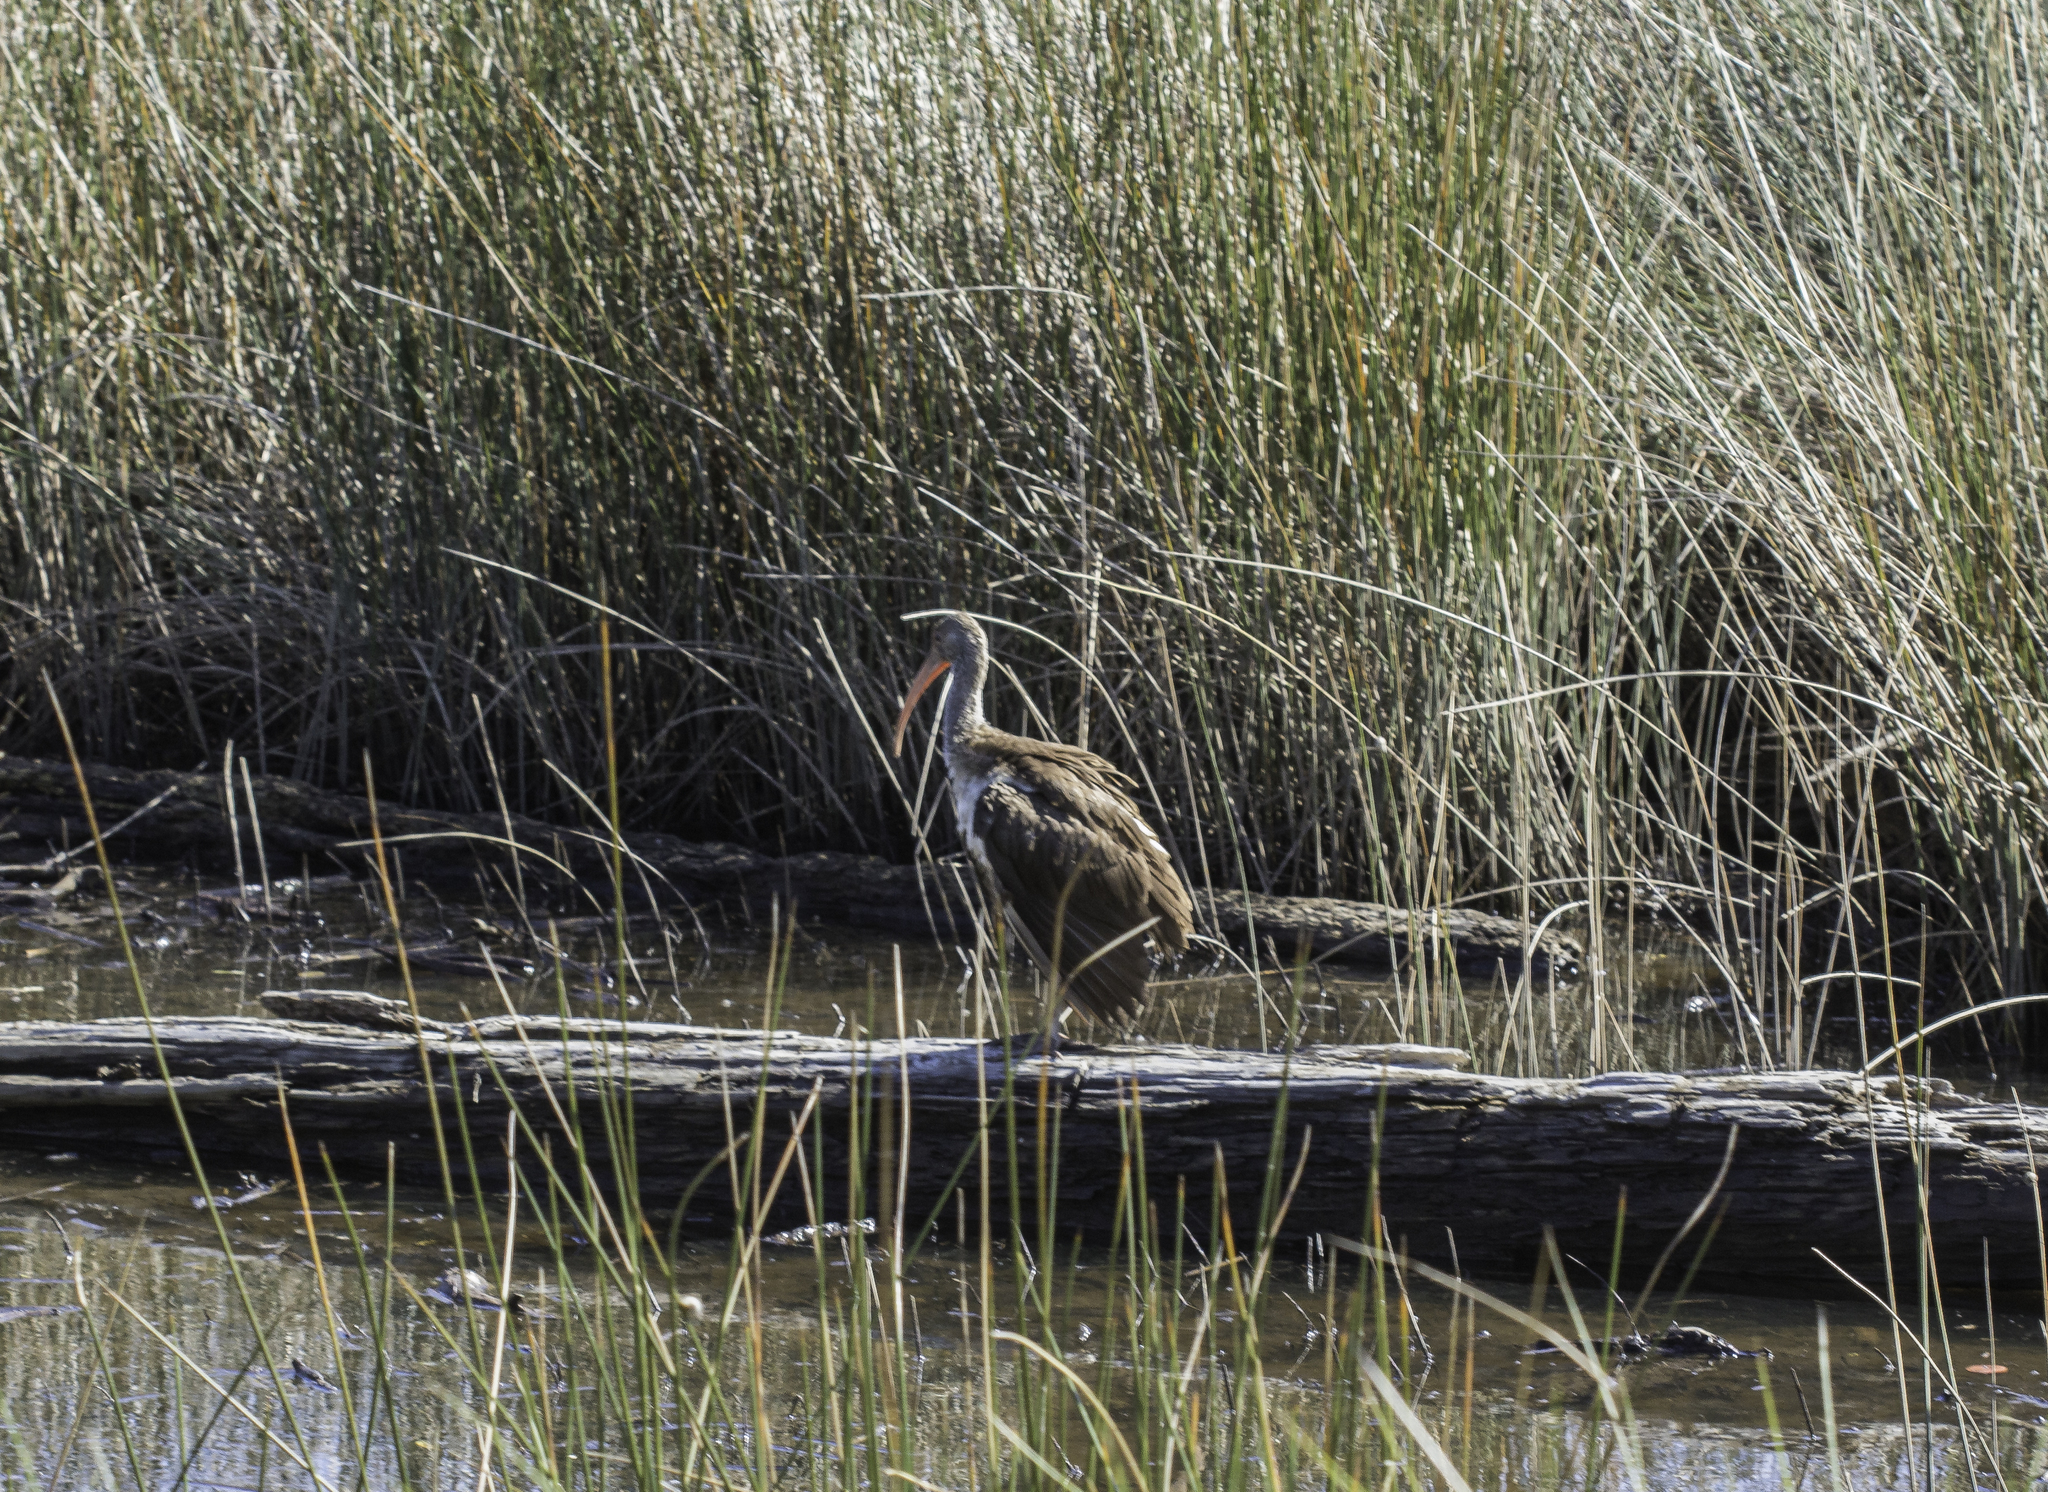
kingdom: Animalia
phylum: Chordata
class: Aves
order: Pelecaniformes
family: Threskiornithidae
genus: Eudocimus
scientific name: Eudocimus albus
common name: White ibis
